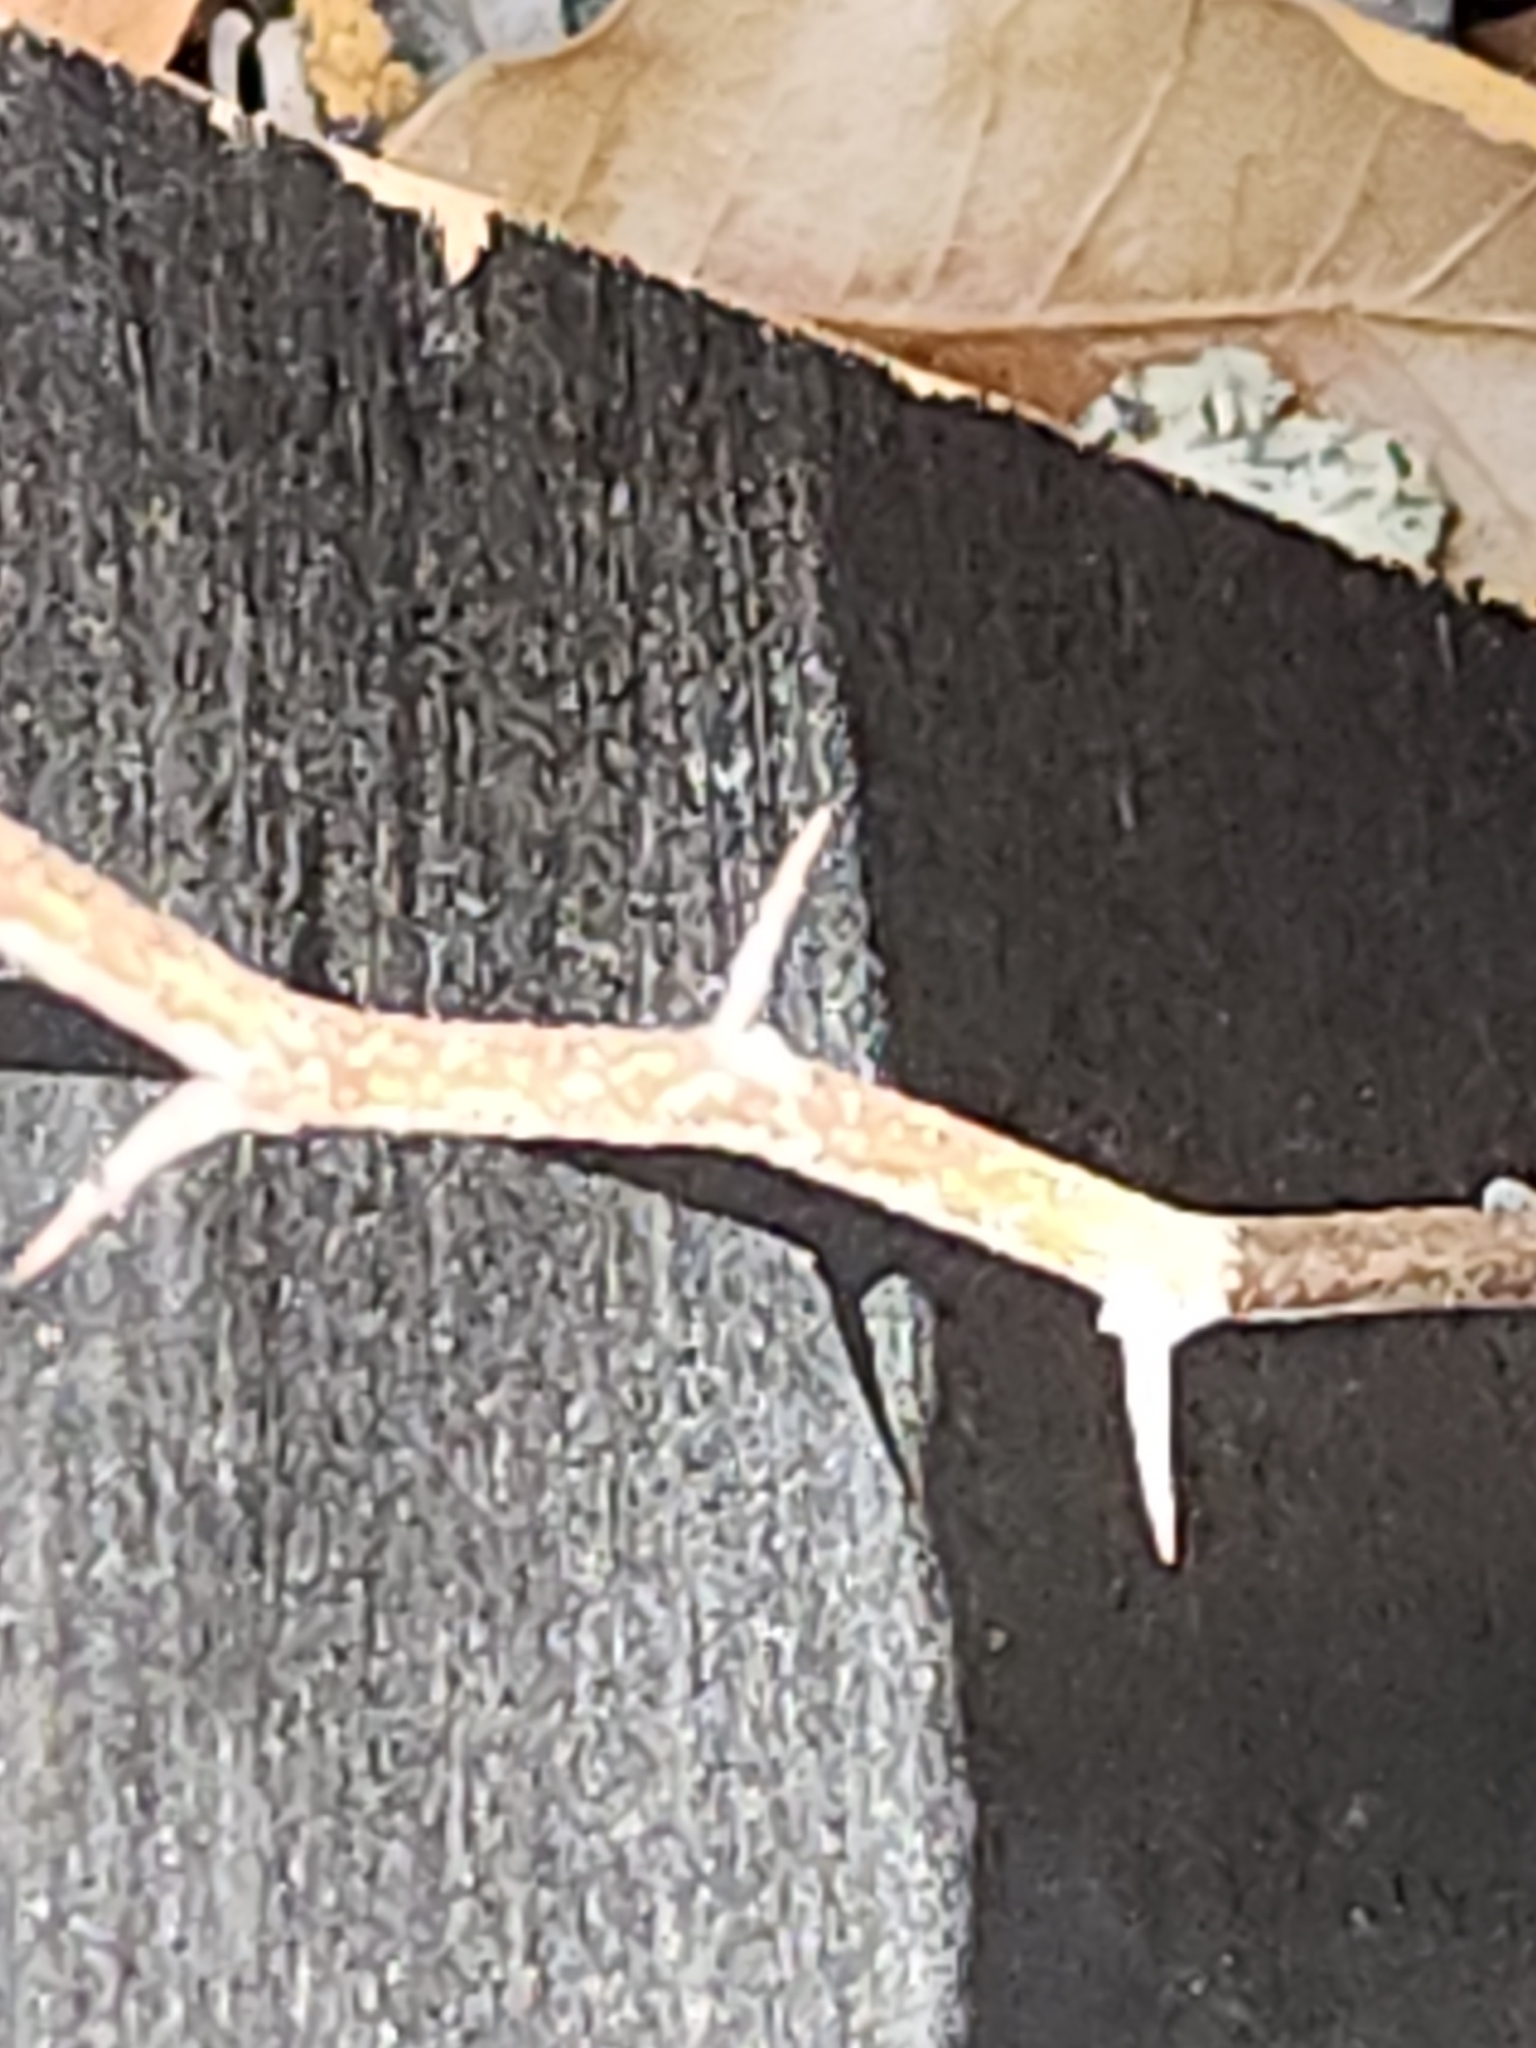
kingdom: Plantae
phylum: Tracheophyta
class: Magnoliopsida
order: Ericales
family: Sapotaceae
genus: Sideroxylon
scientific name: Sideroxylon lanuginosum
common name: Chittamwood
